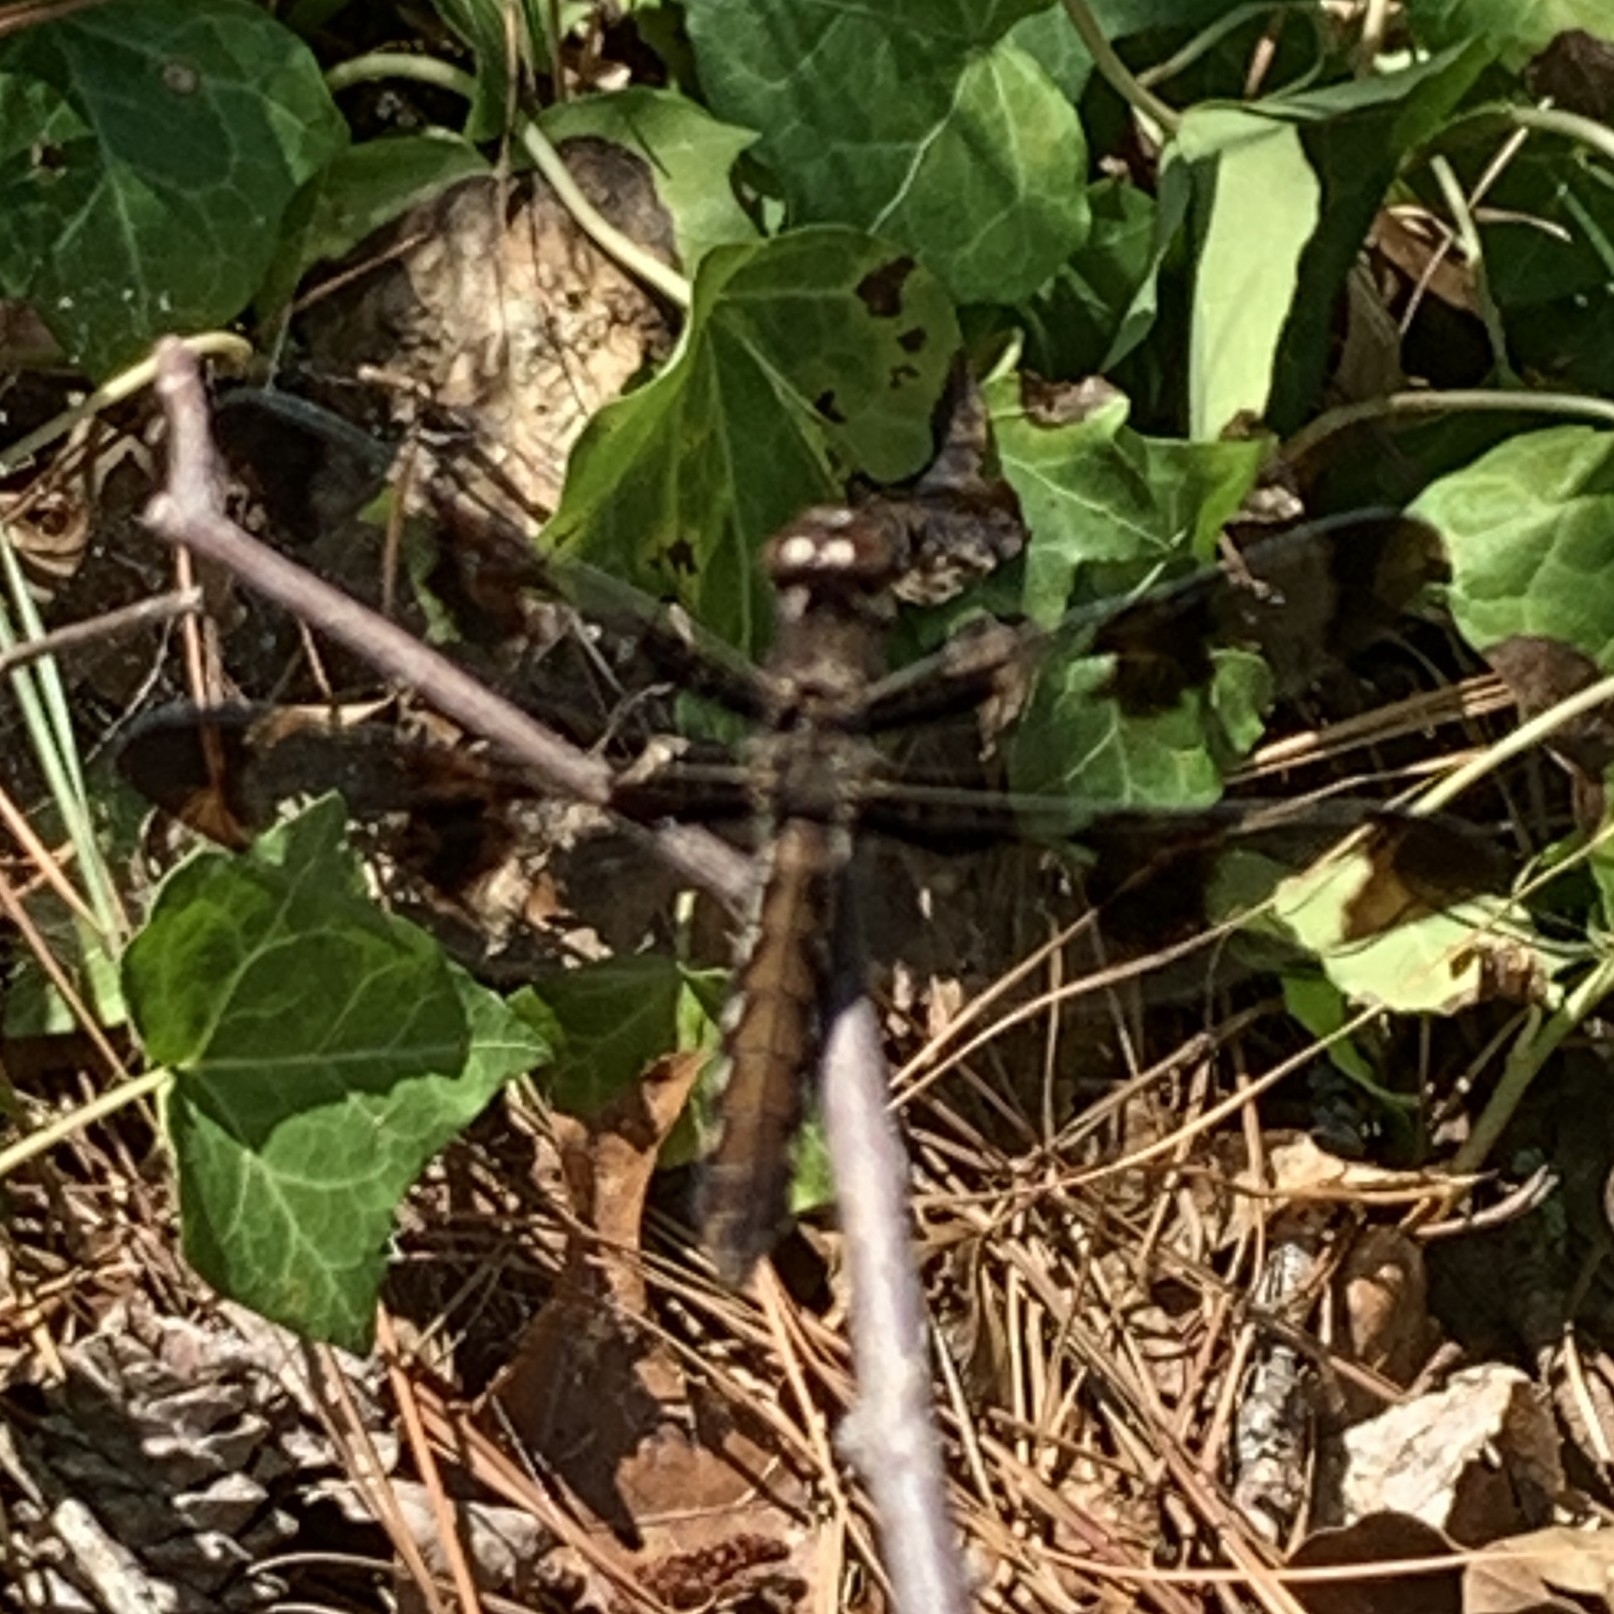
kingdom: Animalia
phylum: Arthropoda
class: Insecta
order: Odonata
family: Libellulidae
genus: Plathemis
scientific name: Plathemis lydia
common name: Common whitetail
